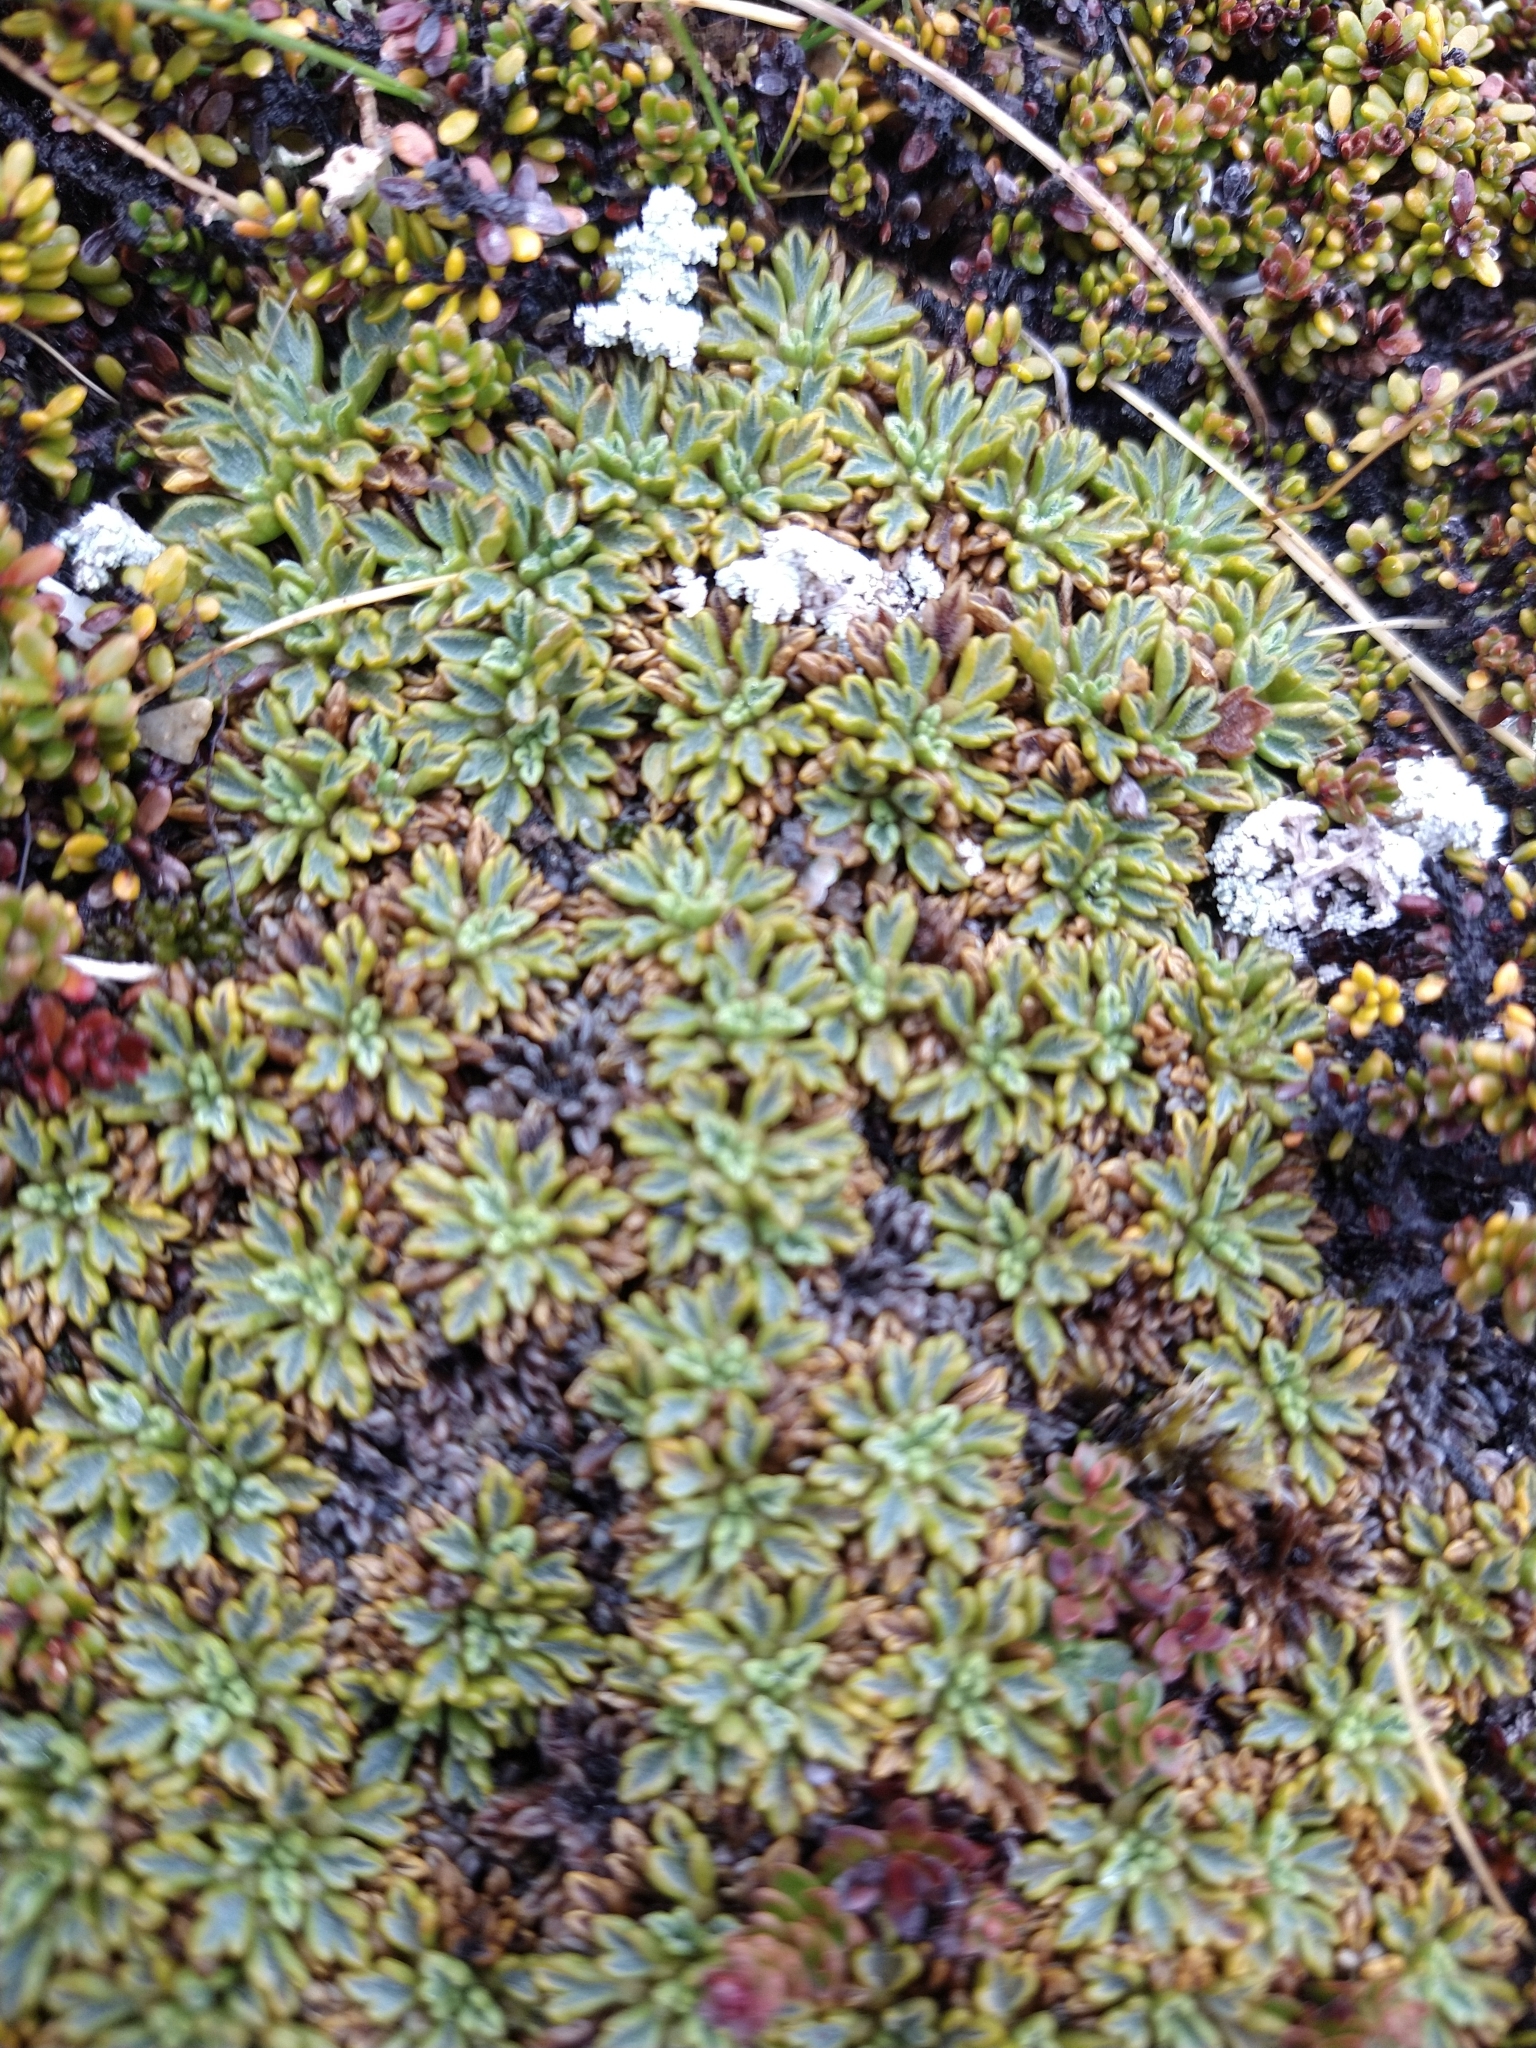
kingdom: Plantae
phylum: Tracheophyta
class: Magnoliopsida
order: Apiales
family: Apiaceae
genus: Bolax
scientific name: Bolax gummifera
